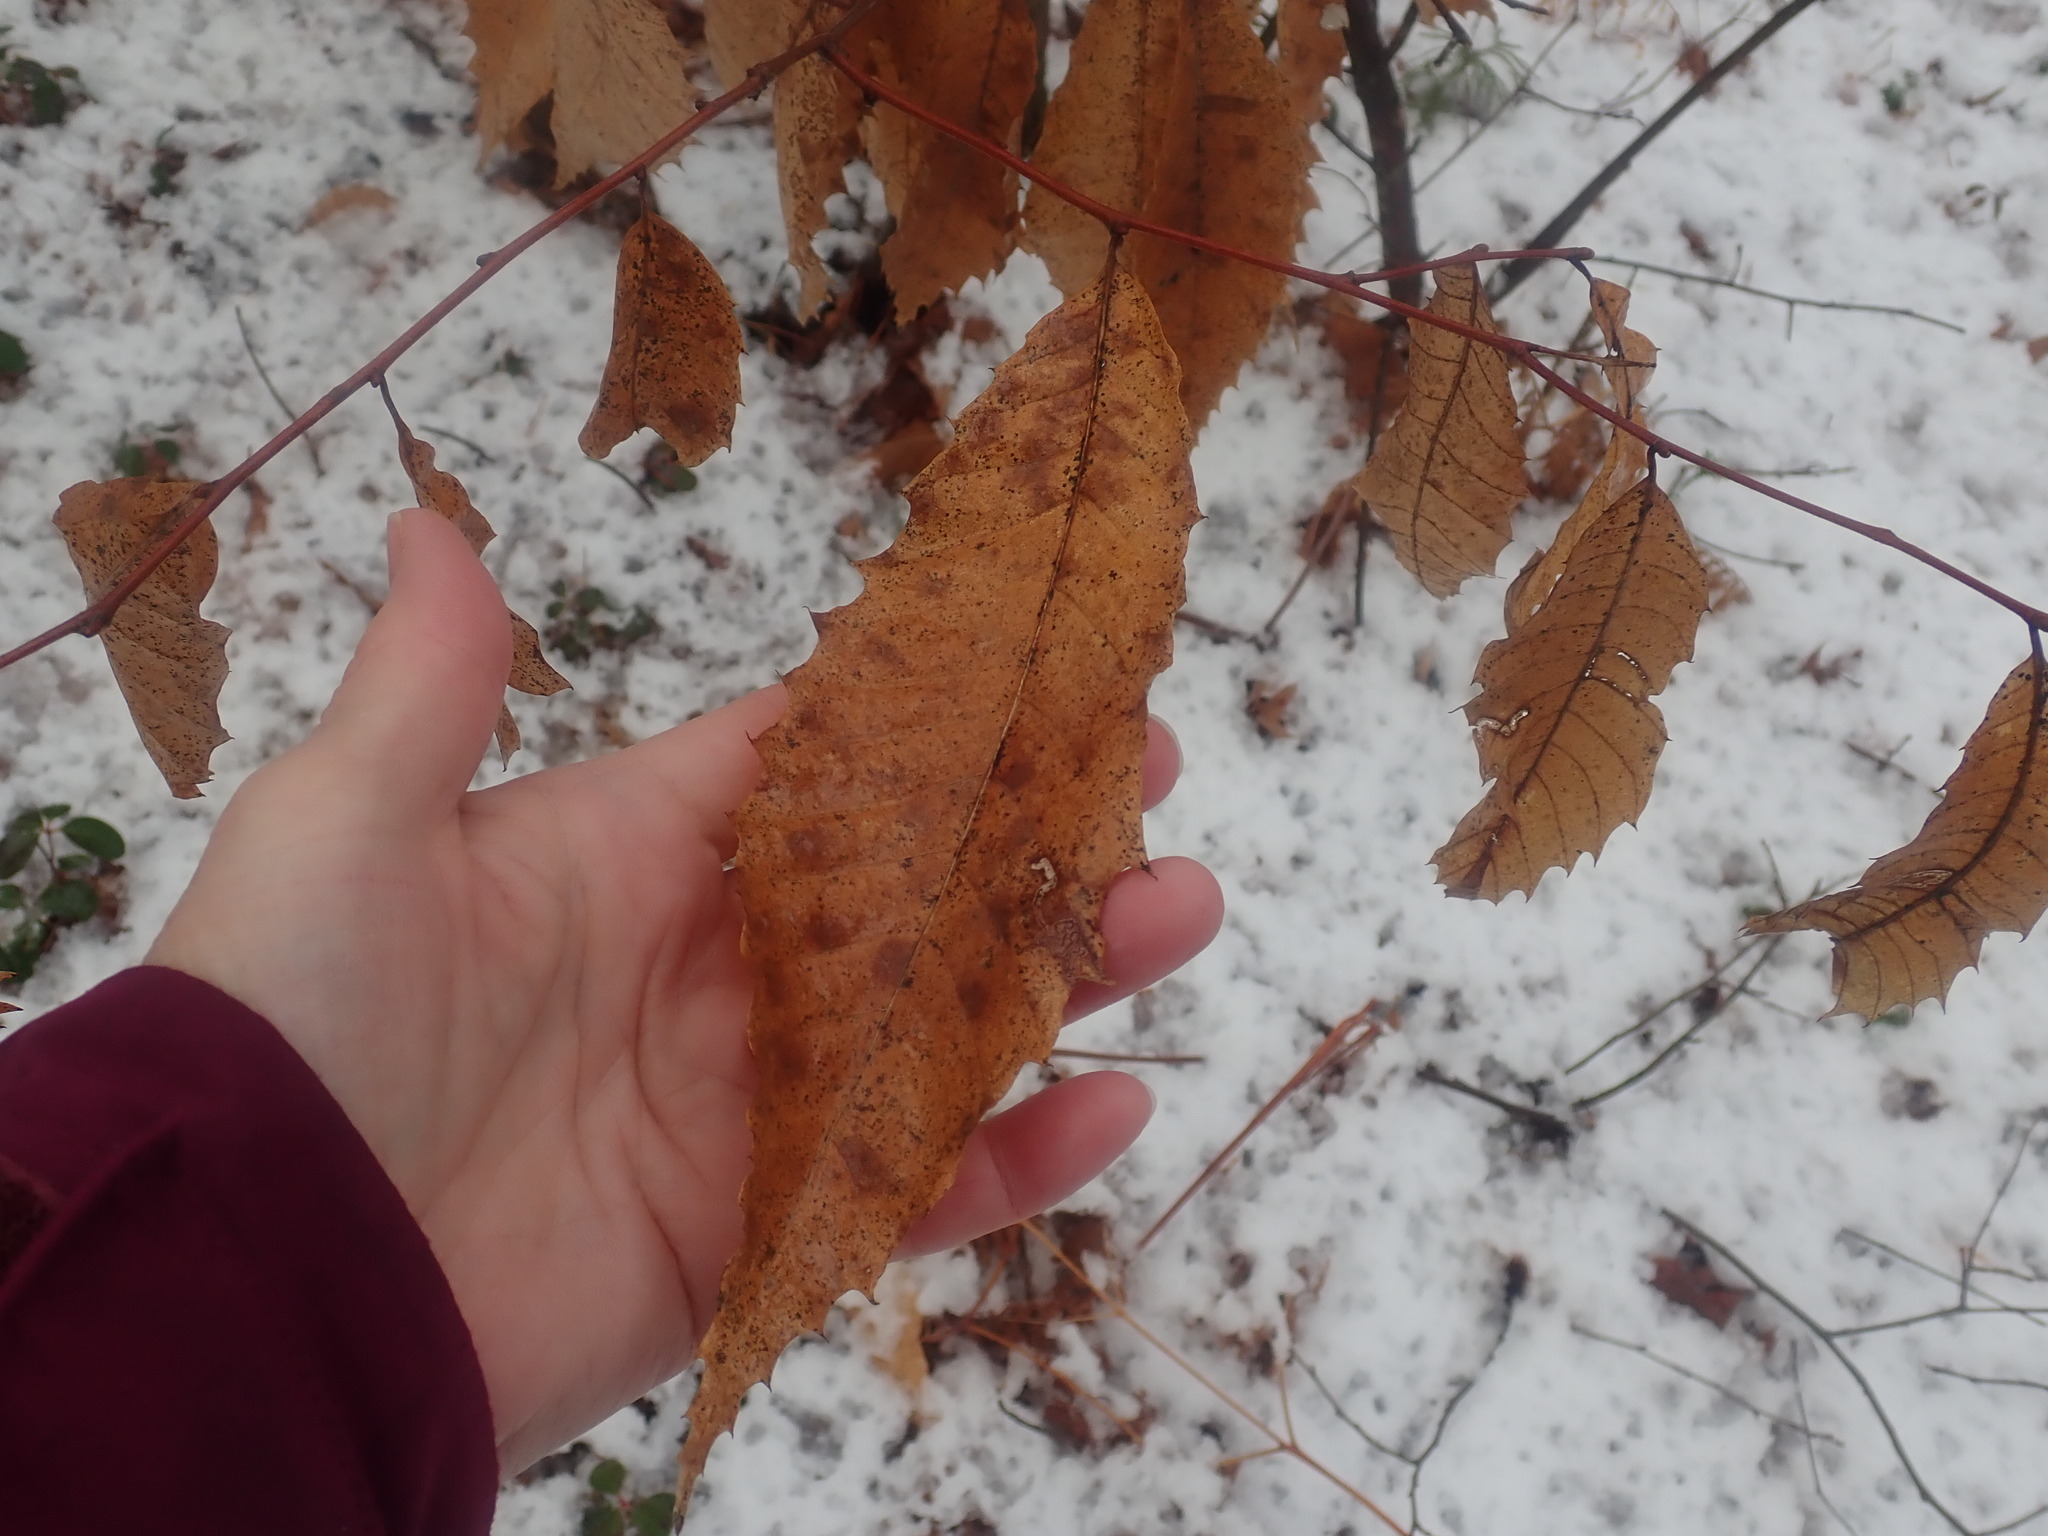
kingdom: Plantae
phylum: Tracheophyta
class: Magnoliopsida
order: Fagales
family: Fagaceae
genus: Castanea
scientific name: Castanea dentata
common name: American chestnut
